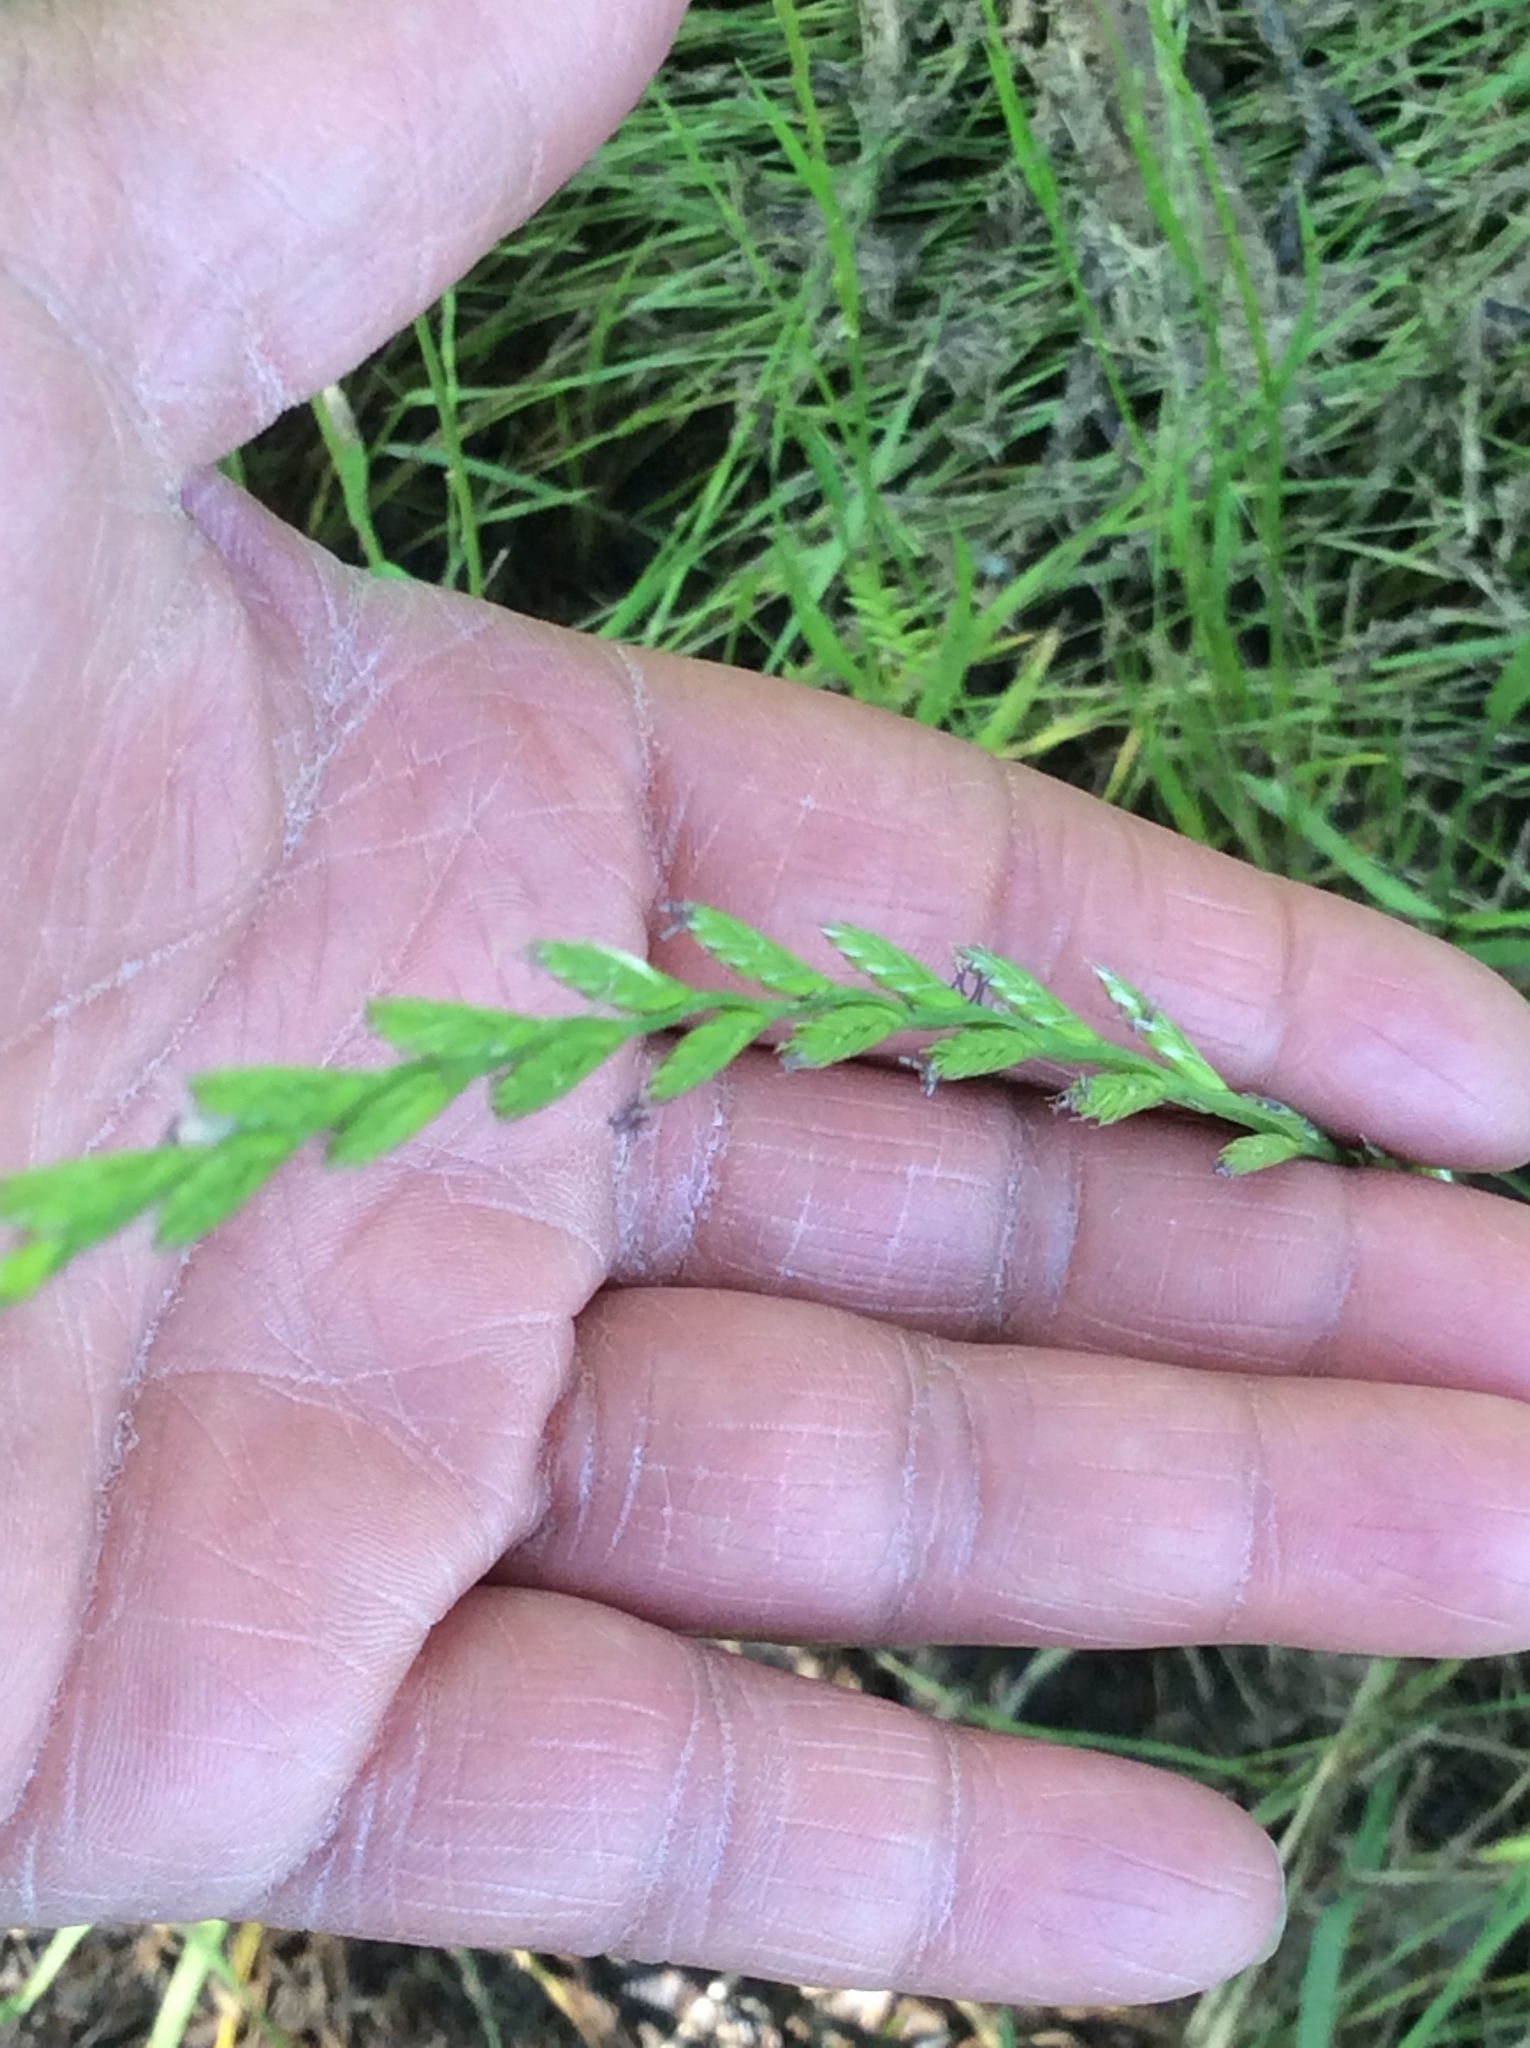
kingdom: Plantae
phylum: Tracheophyta
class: Liliopsida
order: Poales
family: Poaceae
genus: Lolium
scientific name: Lolium perenne
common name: Perennial ryegrass
